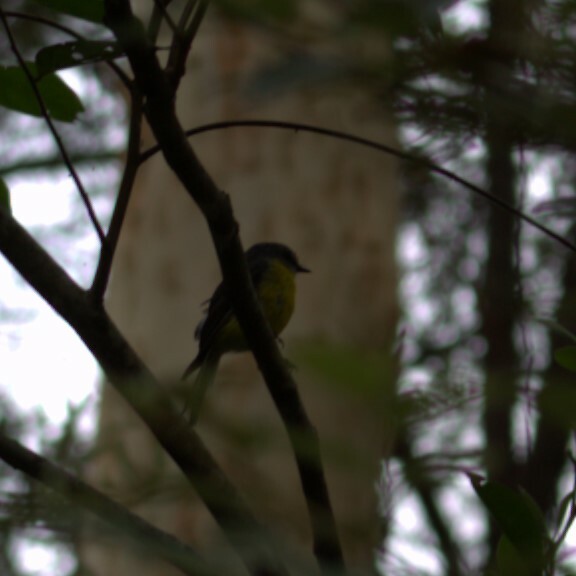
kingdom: Animalia
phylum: Chordata
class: Aves
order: Passeriformes
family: Petroicidae
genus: Eopsaltria
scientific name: Eopsaltria australis
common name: Eastern yellow robin
